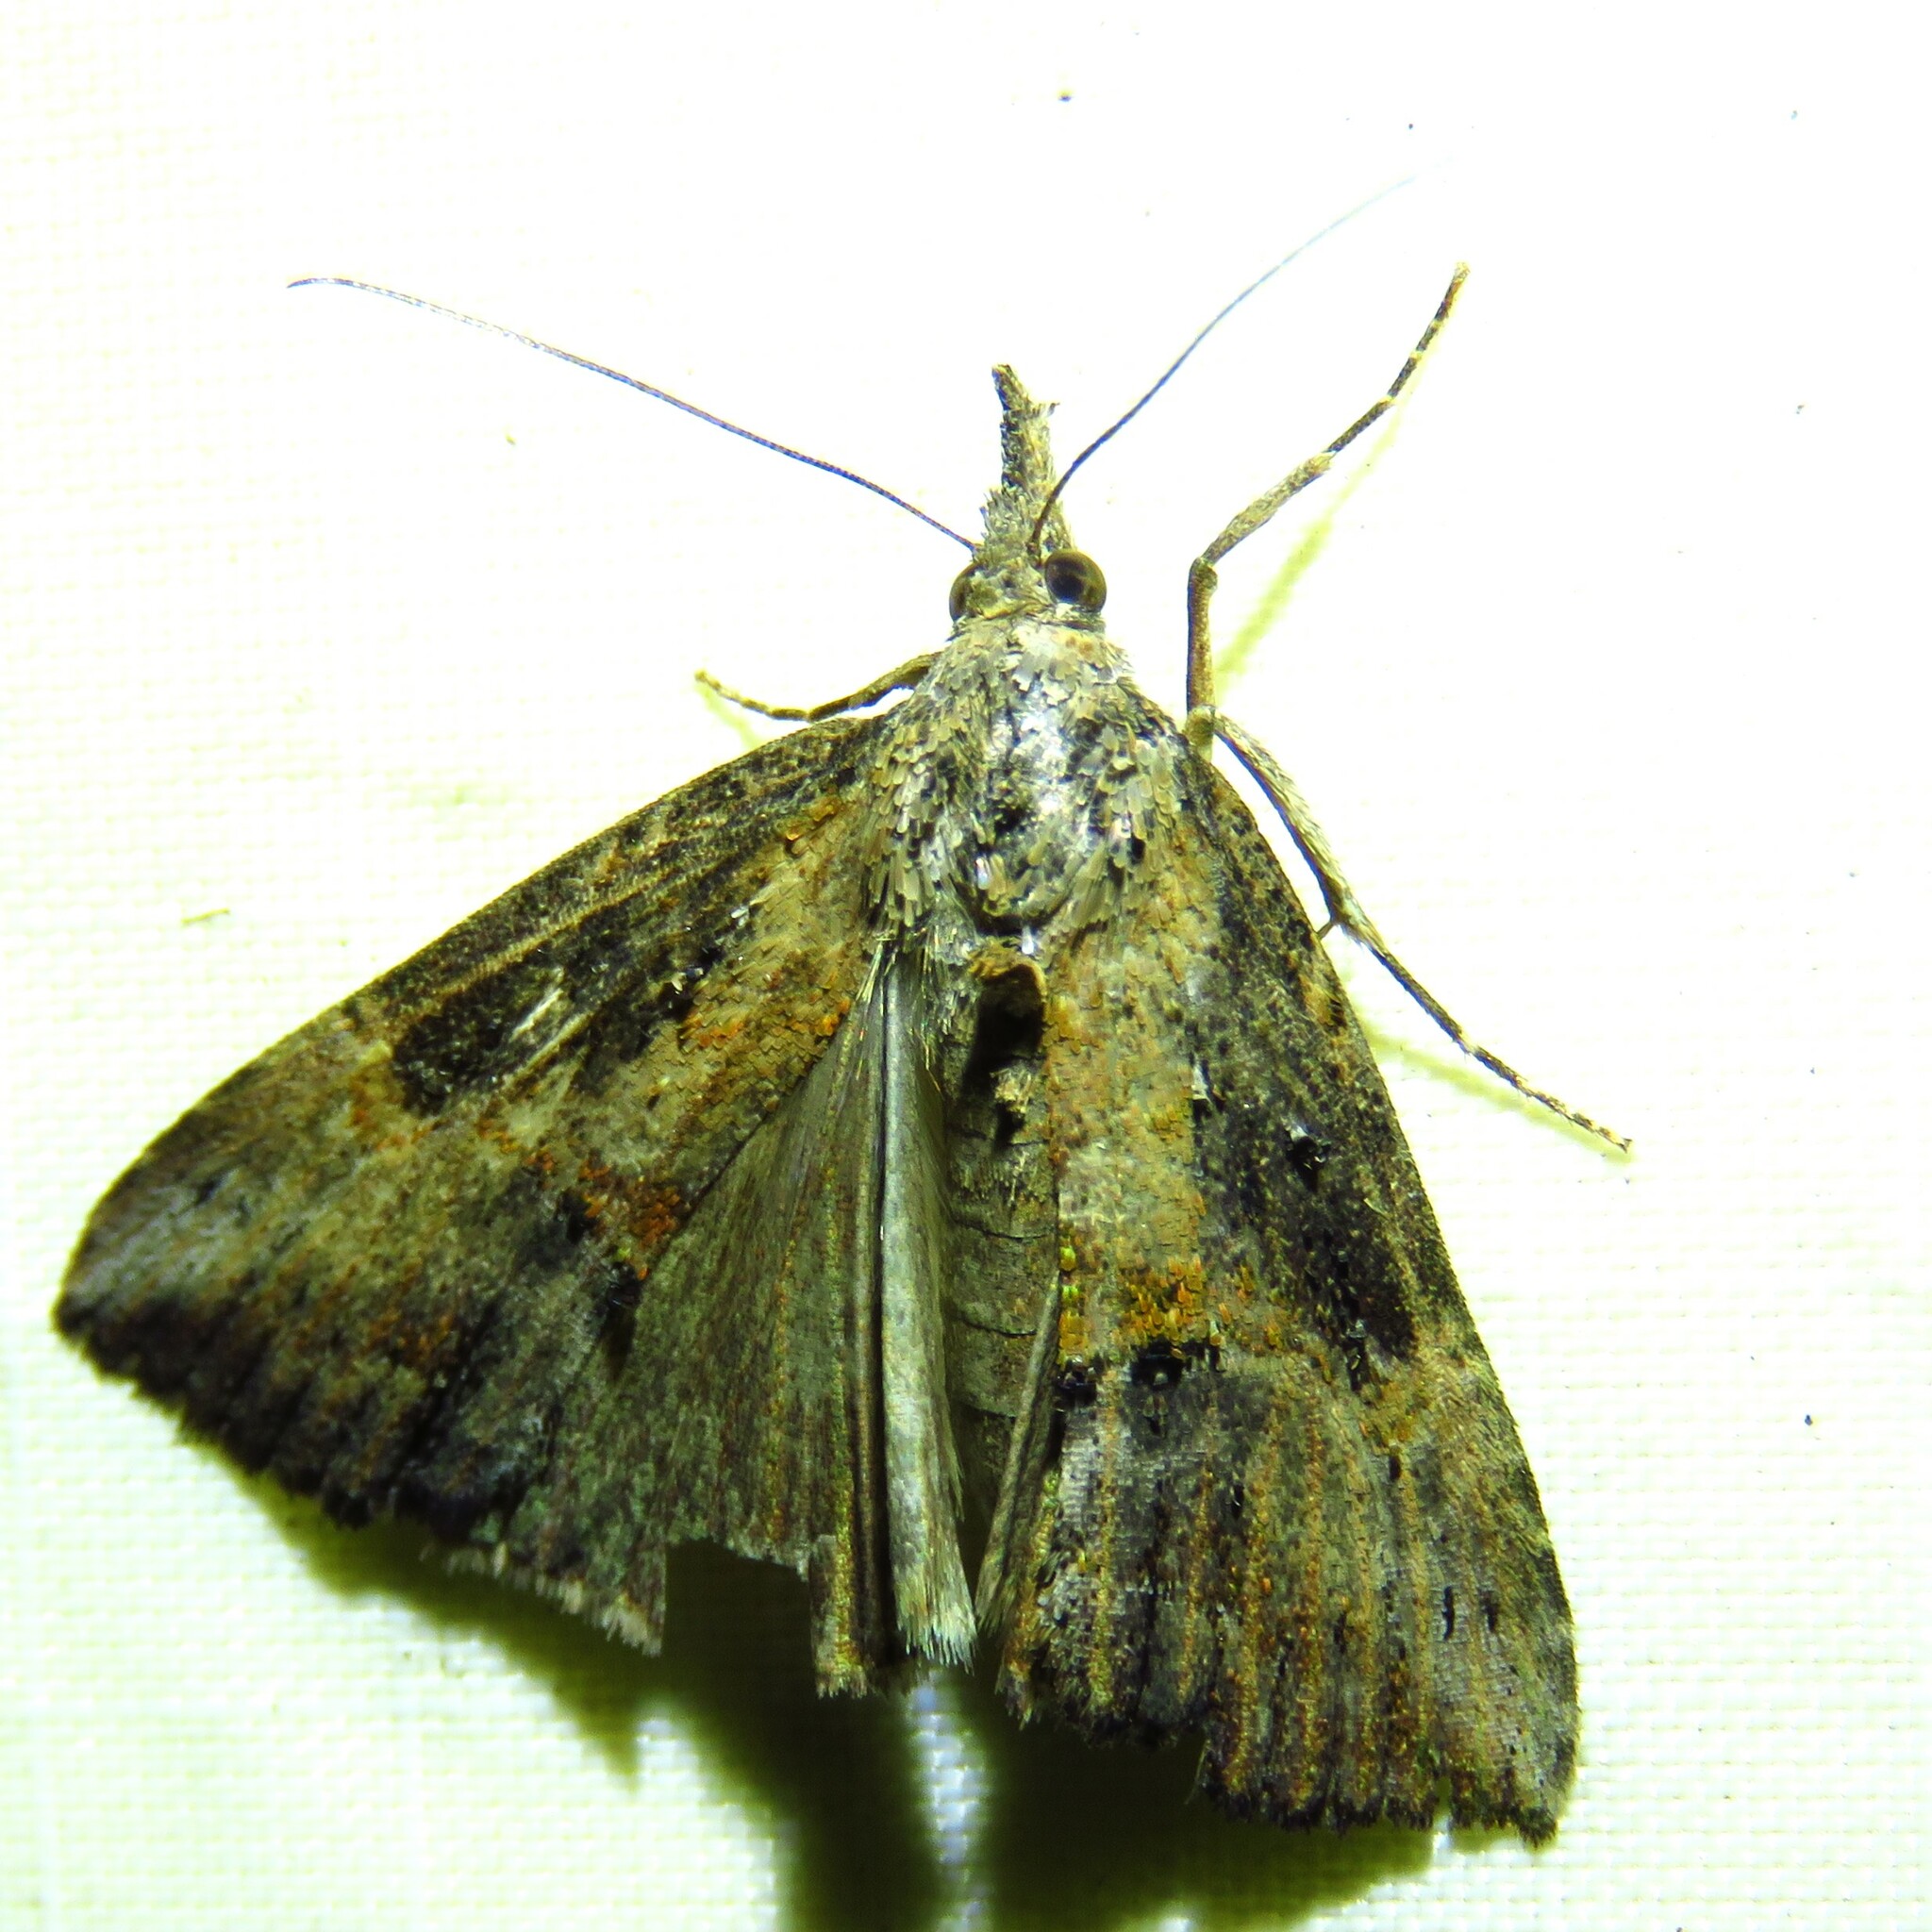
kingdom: Animalia
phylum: Arthropoda
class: Insecta
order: Lepidoptera
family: Erebidae
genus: Hypena
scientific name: Hypena scabra
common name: Green cloverworm
